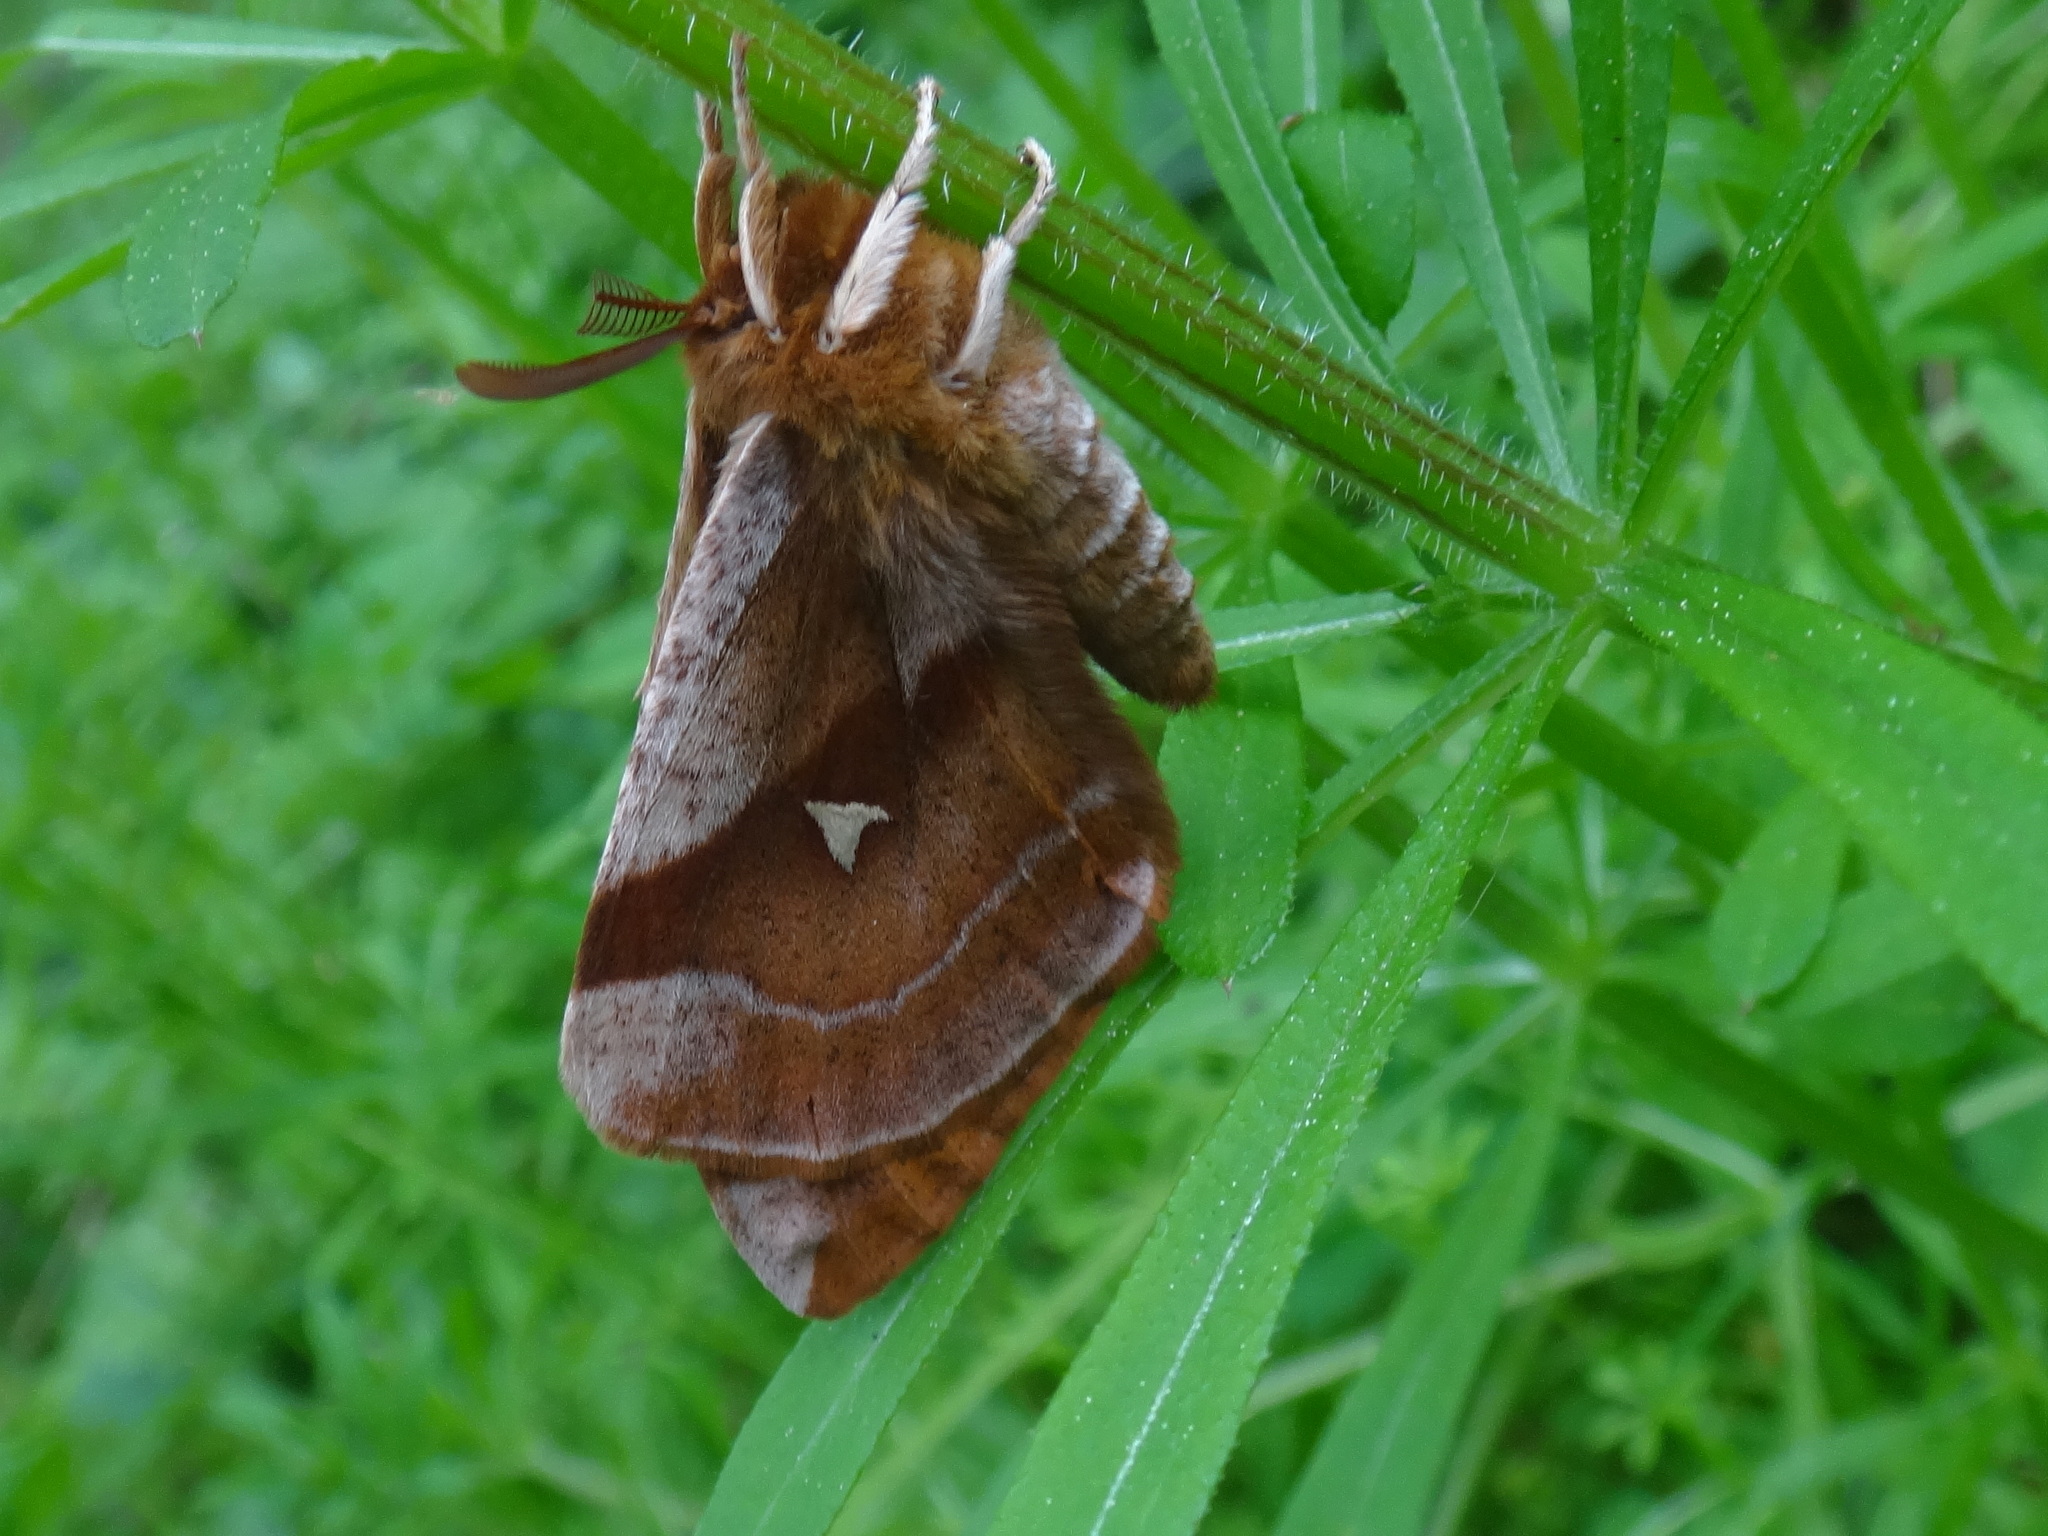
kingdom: Animalia
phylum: Arthropoda
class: Insecta
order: Lepidoptera
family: Saturniidae
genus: Aglia
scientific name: Aglia tau
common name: Tau emperor
